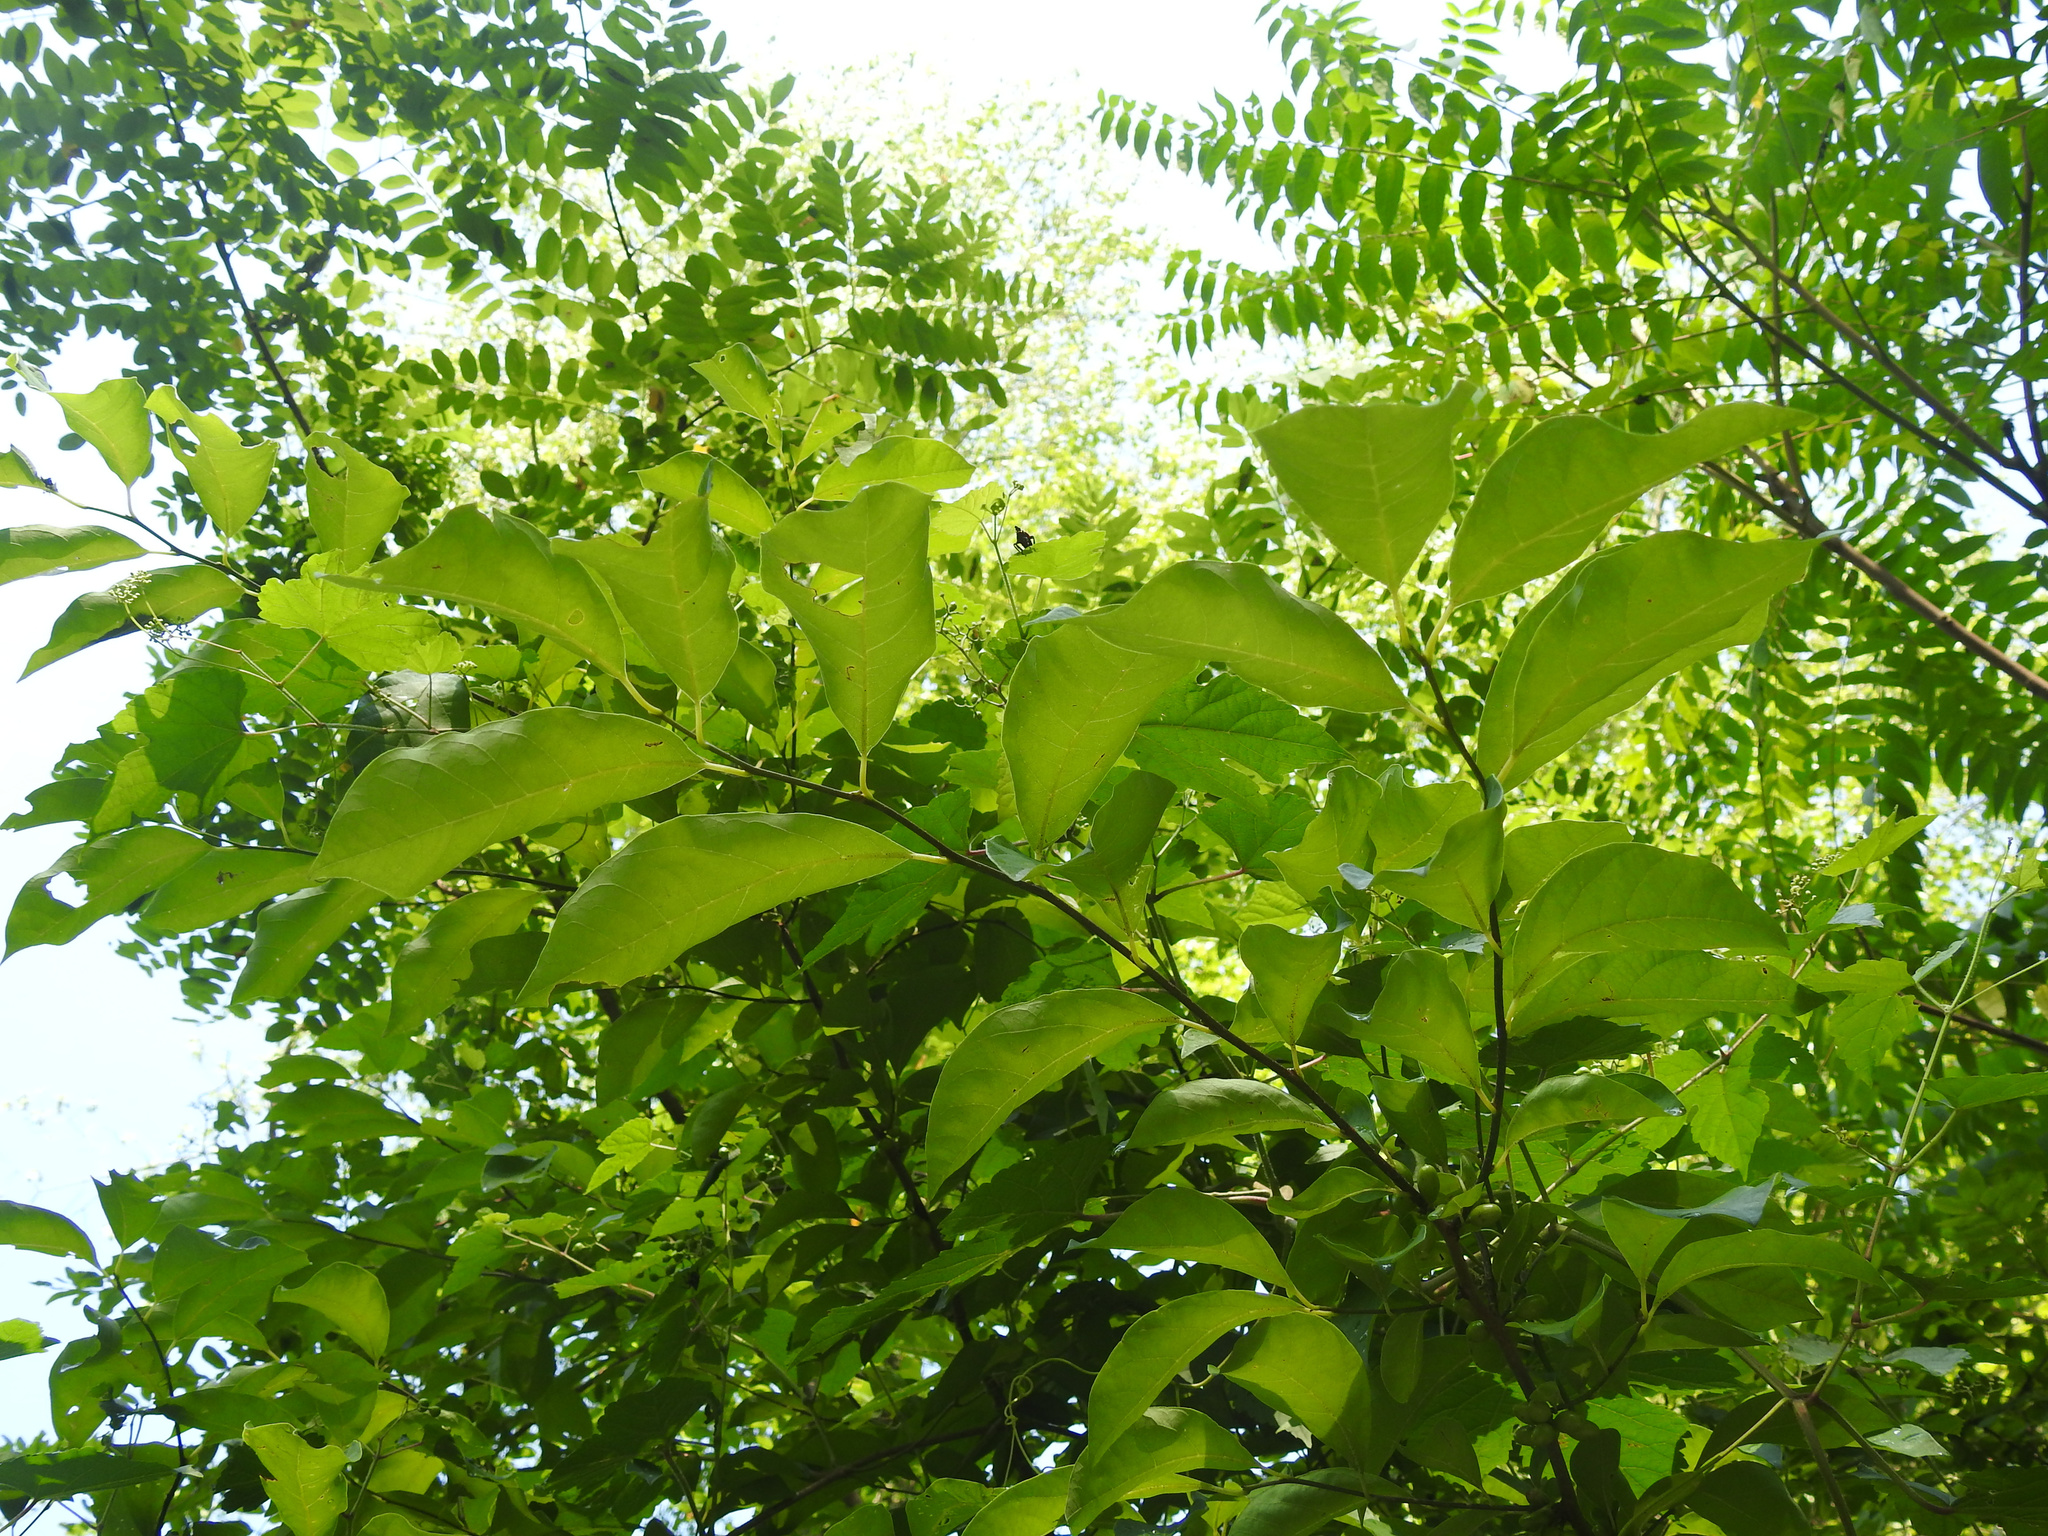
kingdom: Plantae
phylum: Tracheophyta
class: Magnoliopsida
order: Laurales
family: Lauraceae
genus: Lindera
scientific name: Lindera benzoin
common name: Spicebush
